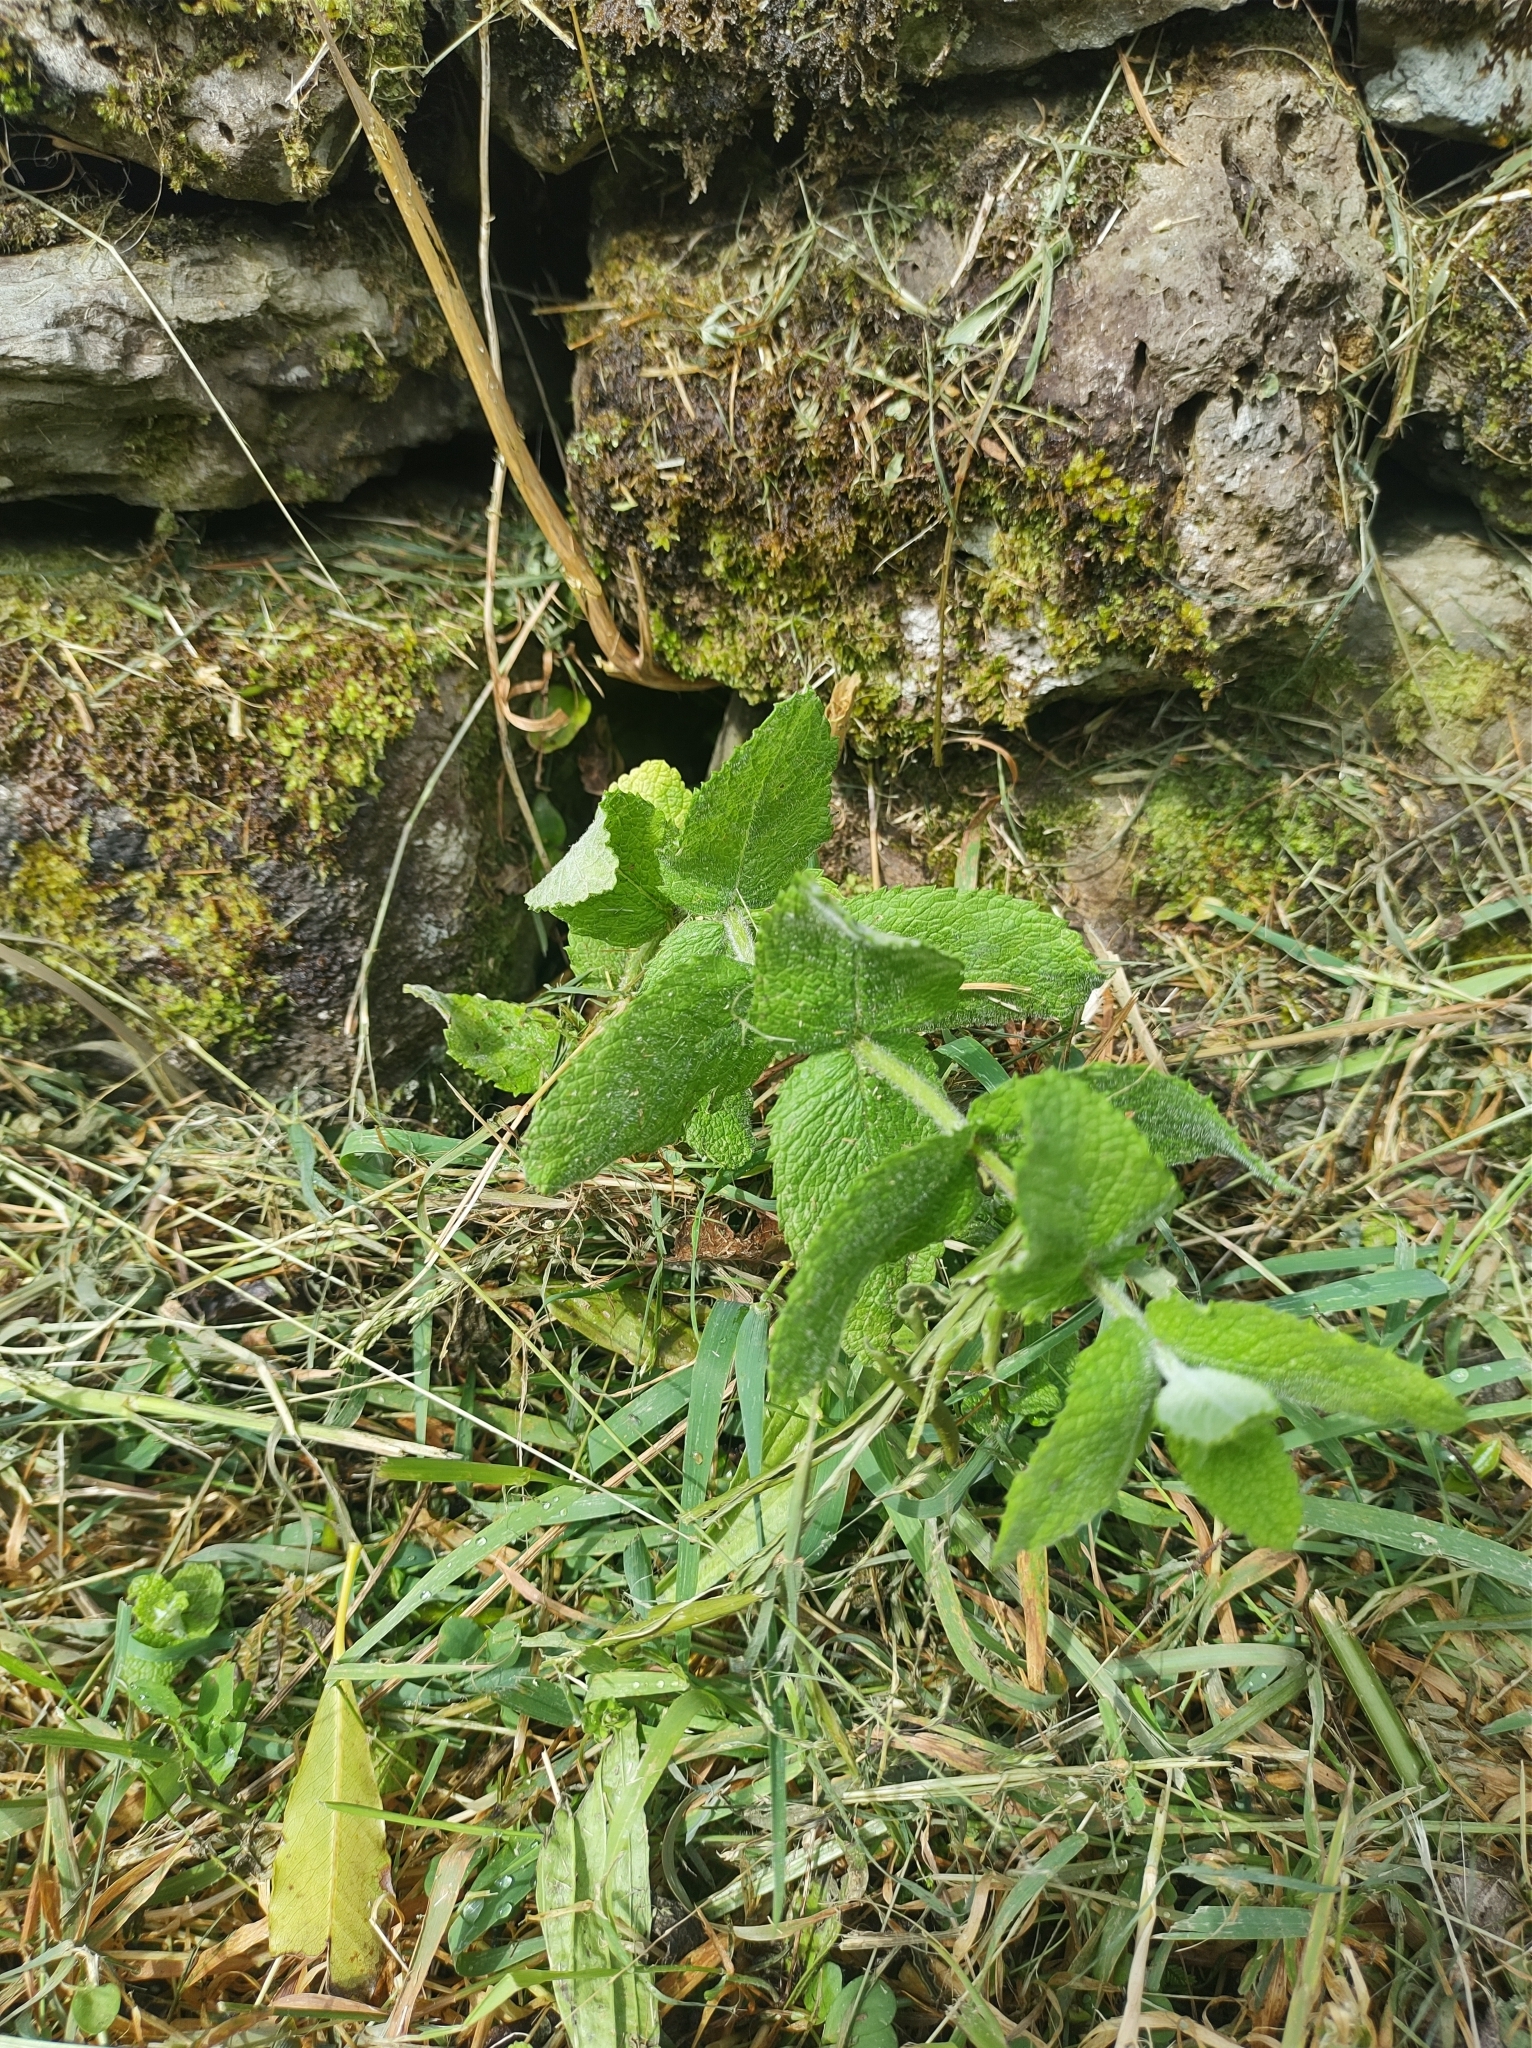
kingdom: Plantae
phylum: Tracheophyta
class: Magnoliopsida
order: Lamiales
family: Lamiaceae
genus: Mentha
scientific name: Mentha suaveolens
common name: Apple mint
